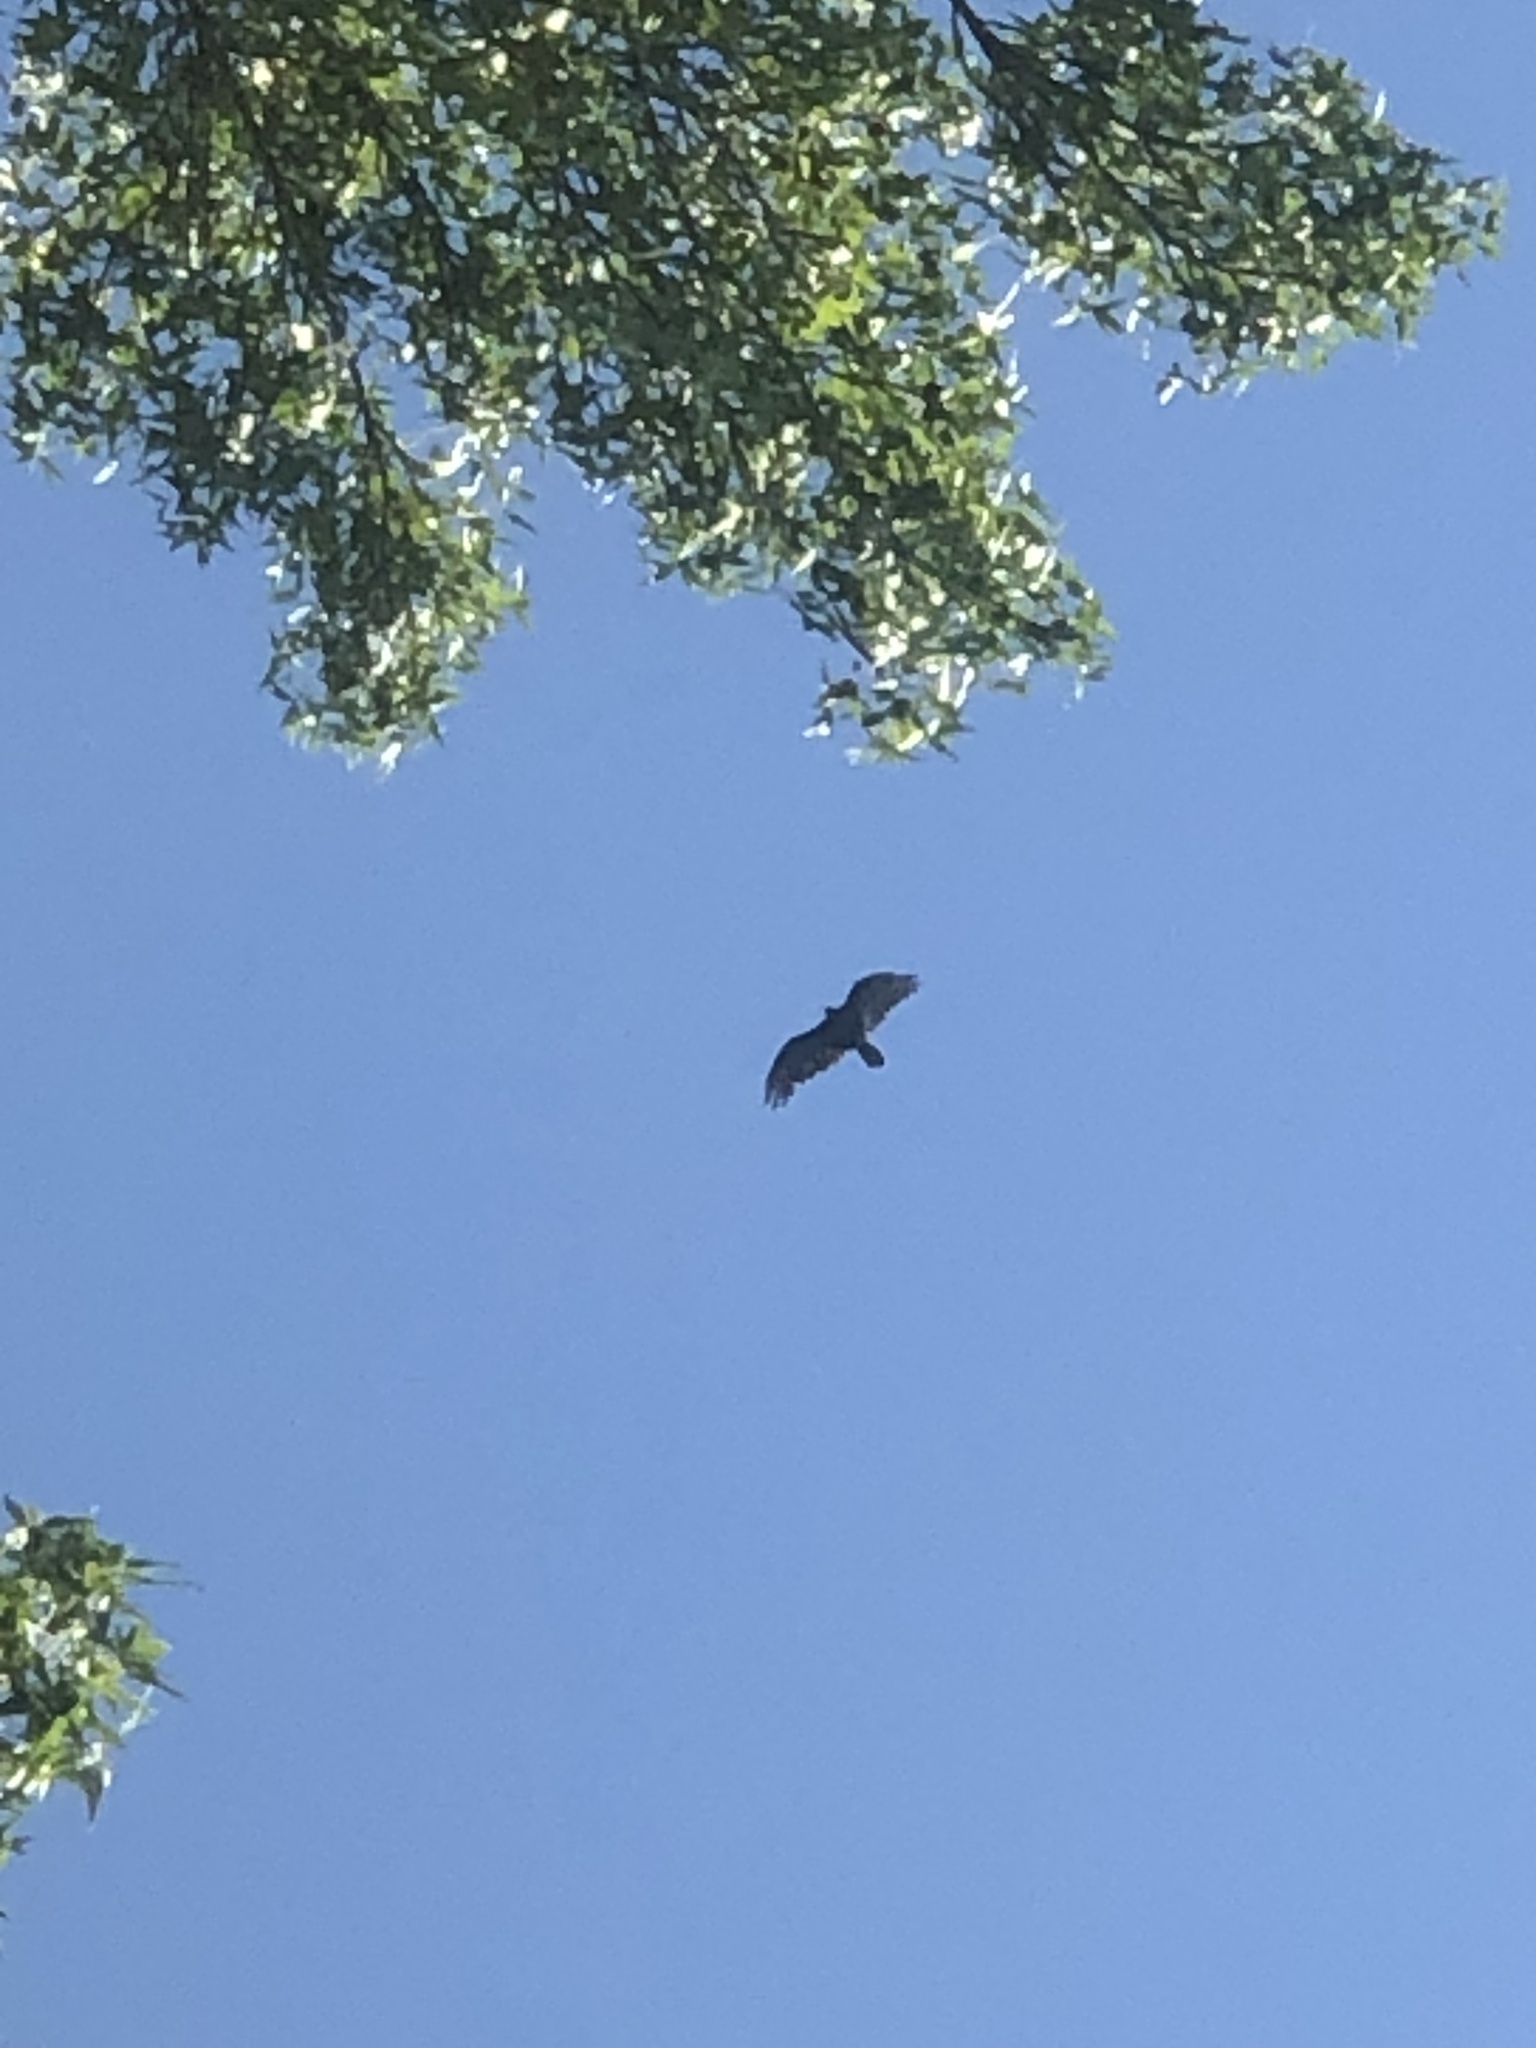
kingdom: Animalia
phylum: Chordata
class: Aves
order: Accipitriformes
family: Cathartidae
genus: Cathartes
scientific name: Cathartes aura
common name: Turkey vulture
